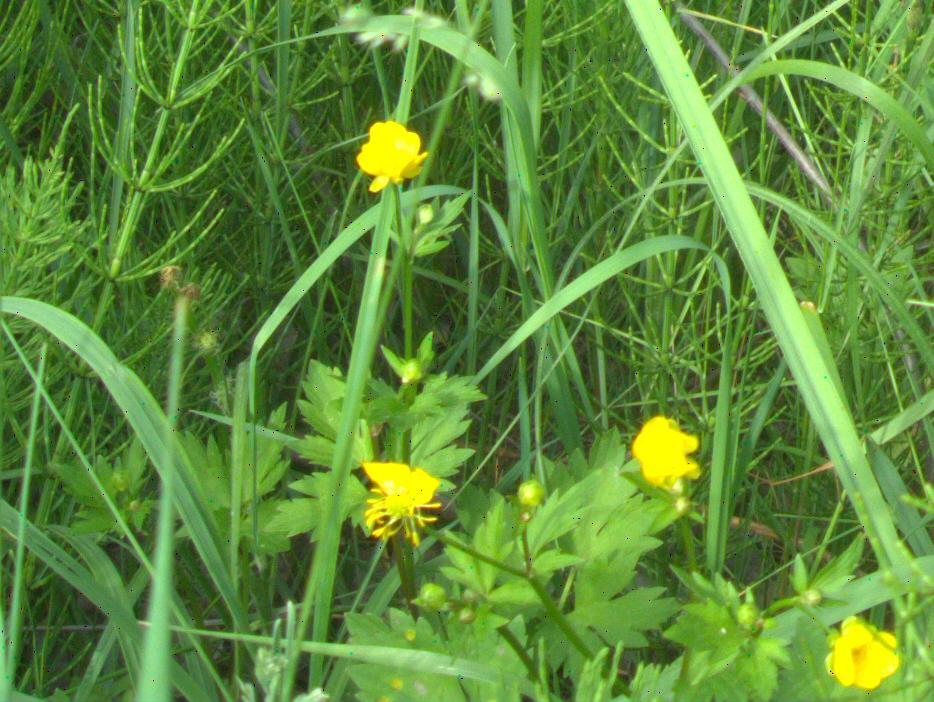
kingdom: Plantae
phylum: Tracheophyta
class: Magnoliopsida
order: Ranunculales
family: Ranunculaceae
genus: Ranunculus
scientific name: Ranunculus repens
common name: Creeping buttercup
